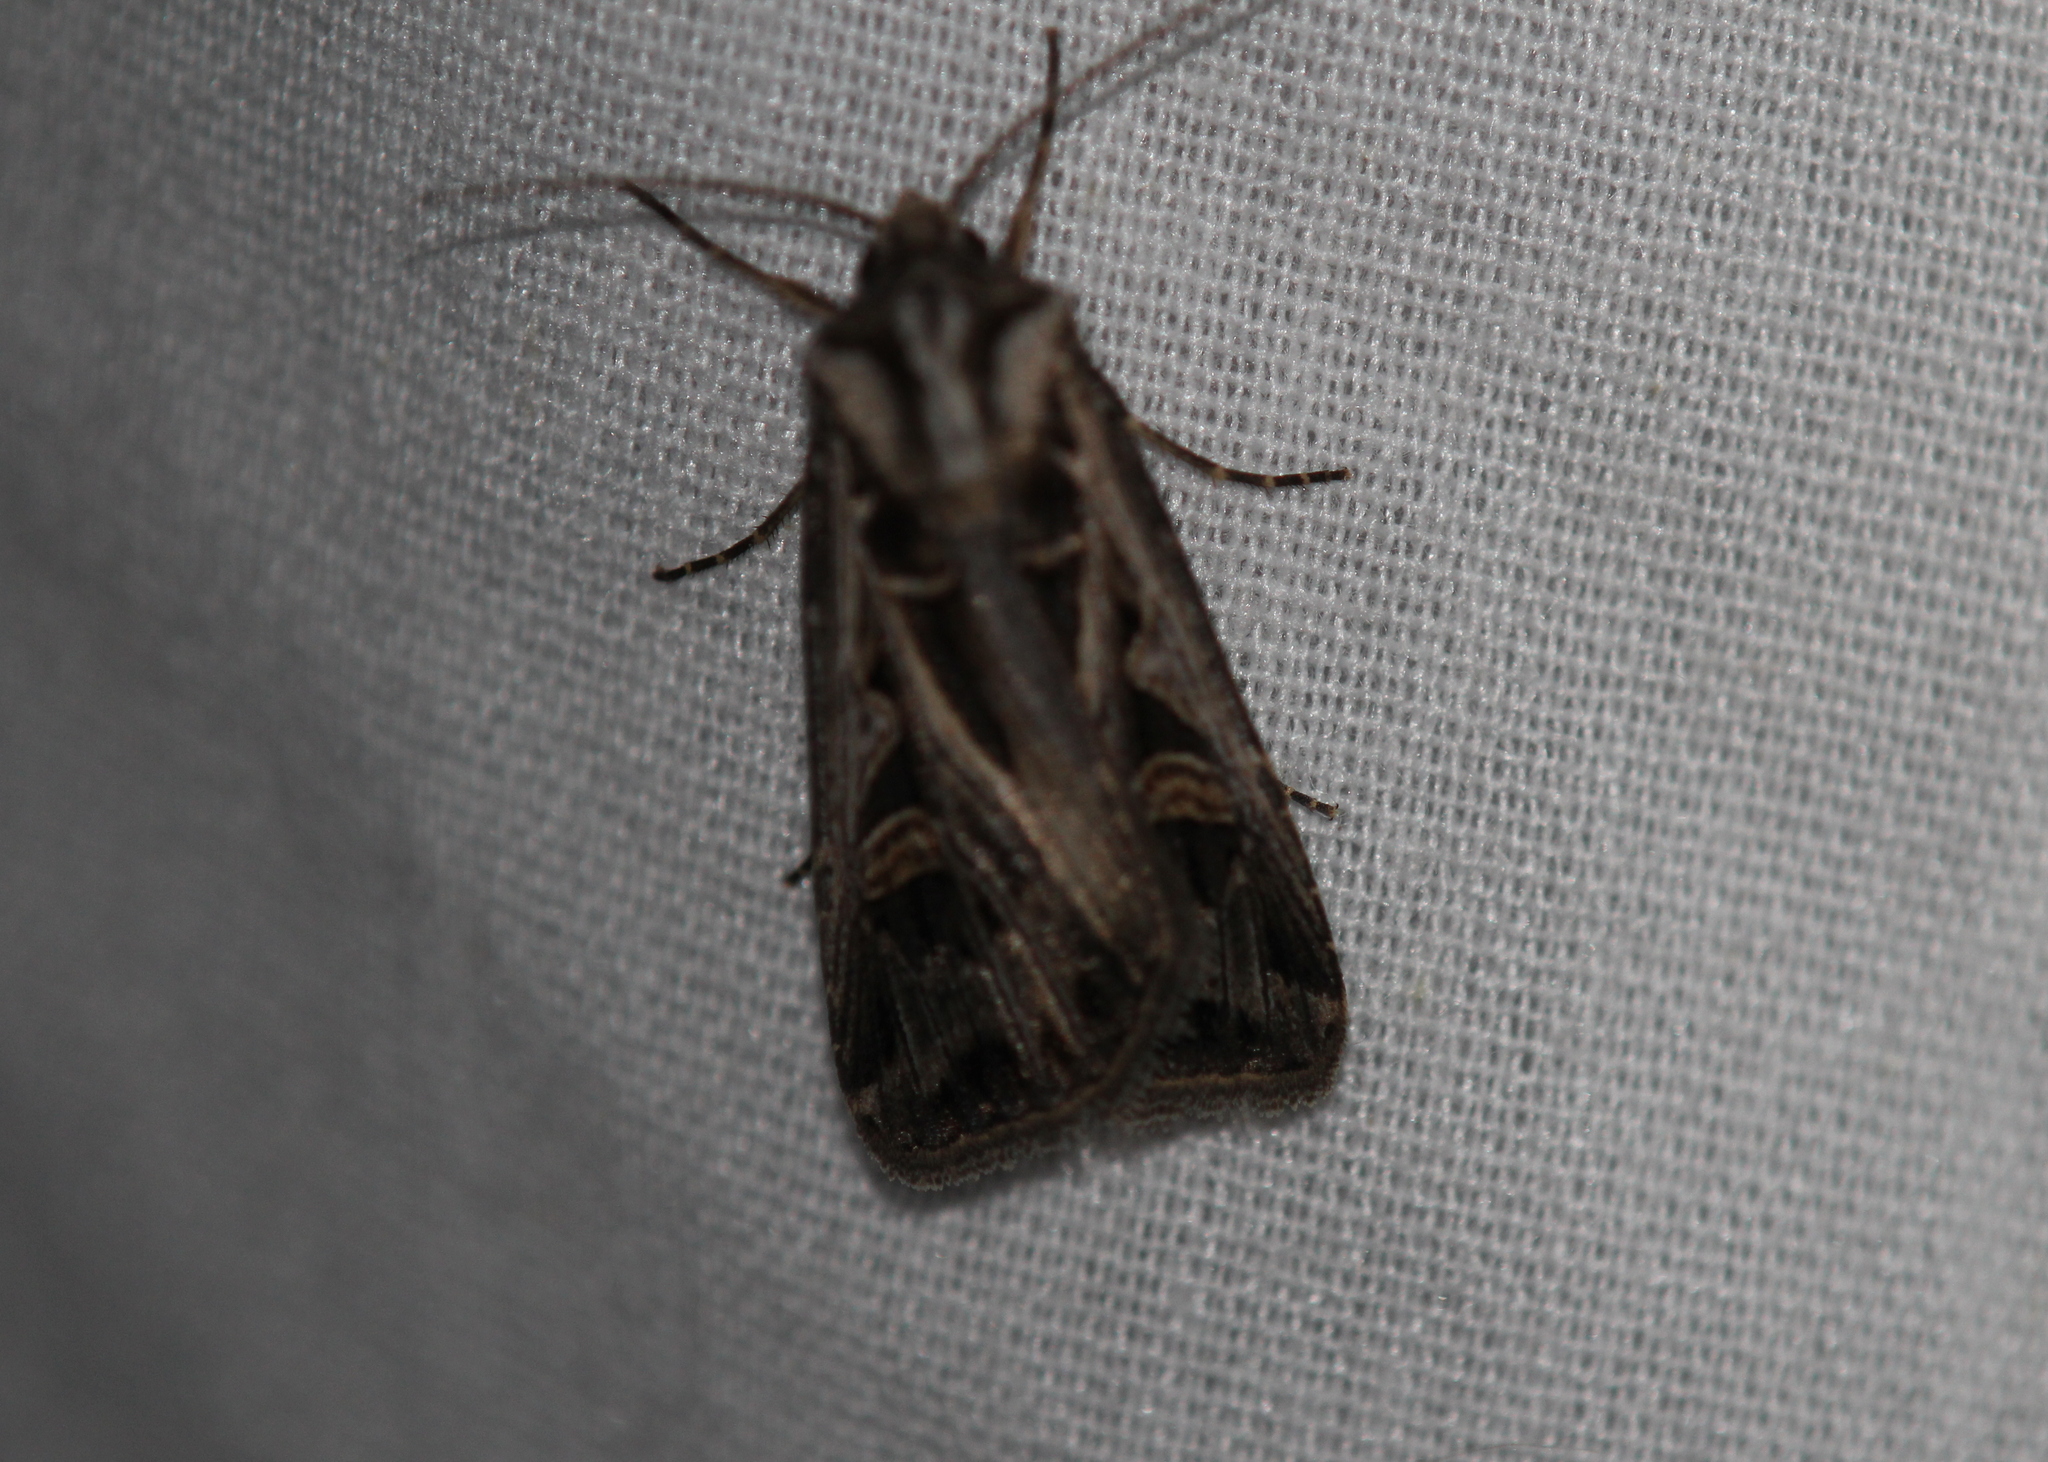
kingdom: Animalia
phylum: Arthropoda
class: Insecta
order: Lepidoptera
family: Noctuidae
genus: Feltia
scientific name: Feltia jaculifera
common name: Dingy cutworm moth
